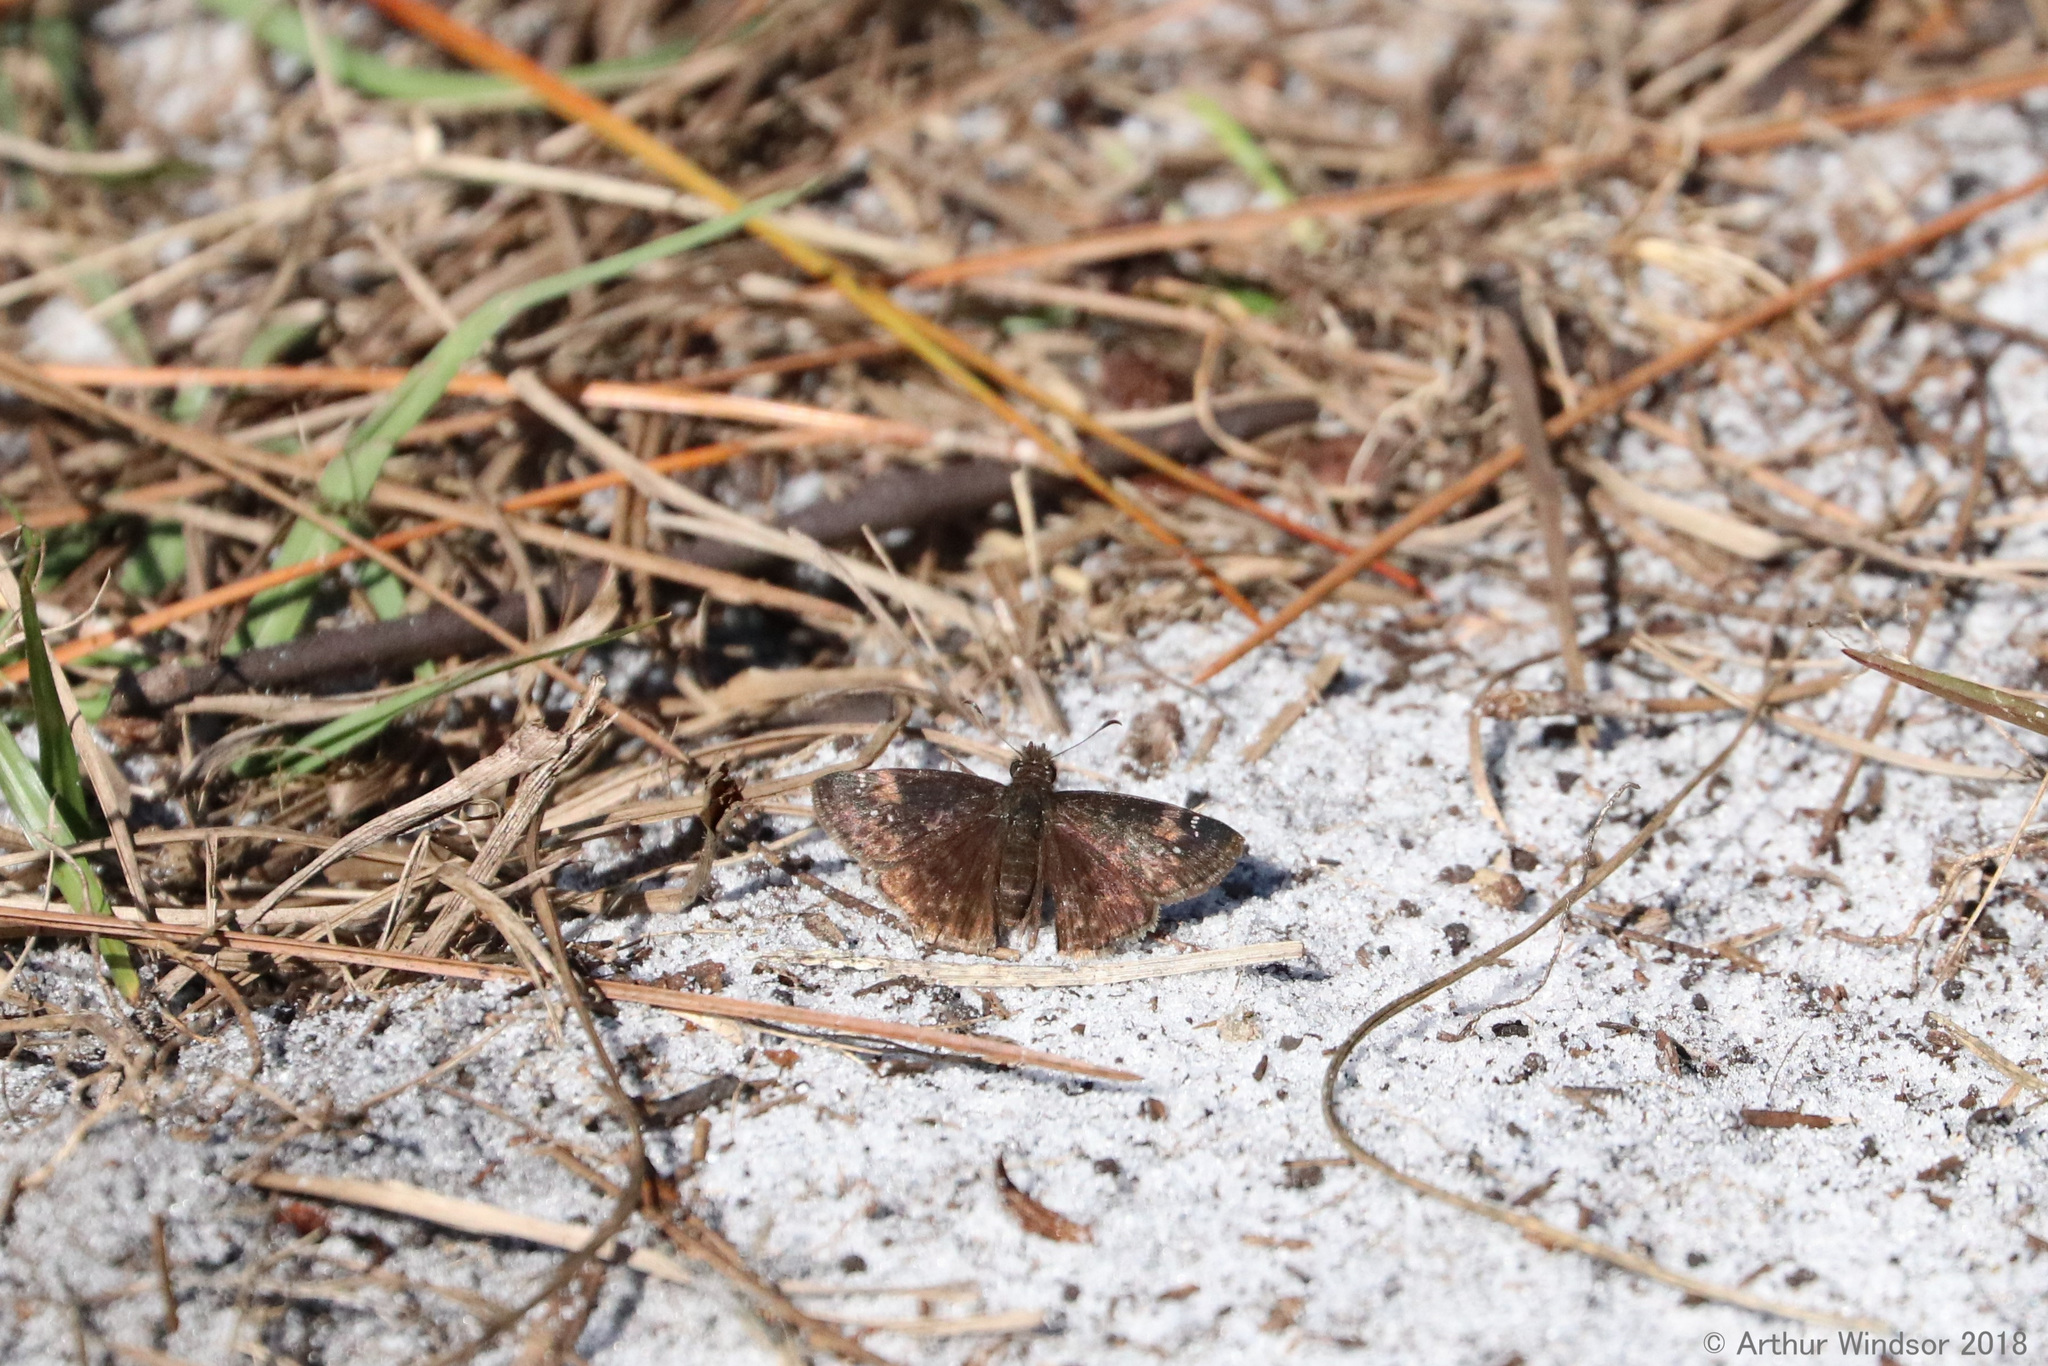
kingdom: Animalia
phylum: Arthropoda
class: Insecta
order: Lepidoptera
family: Hesperiidae
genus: Erynnis
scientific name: Erynnis zarucco
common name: Zarucco duskywing
